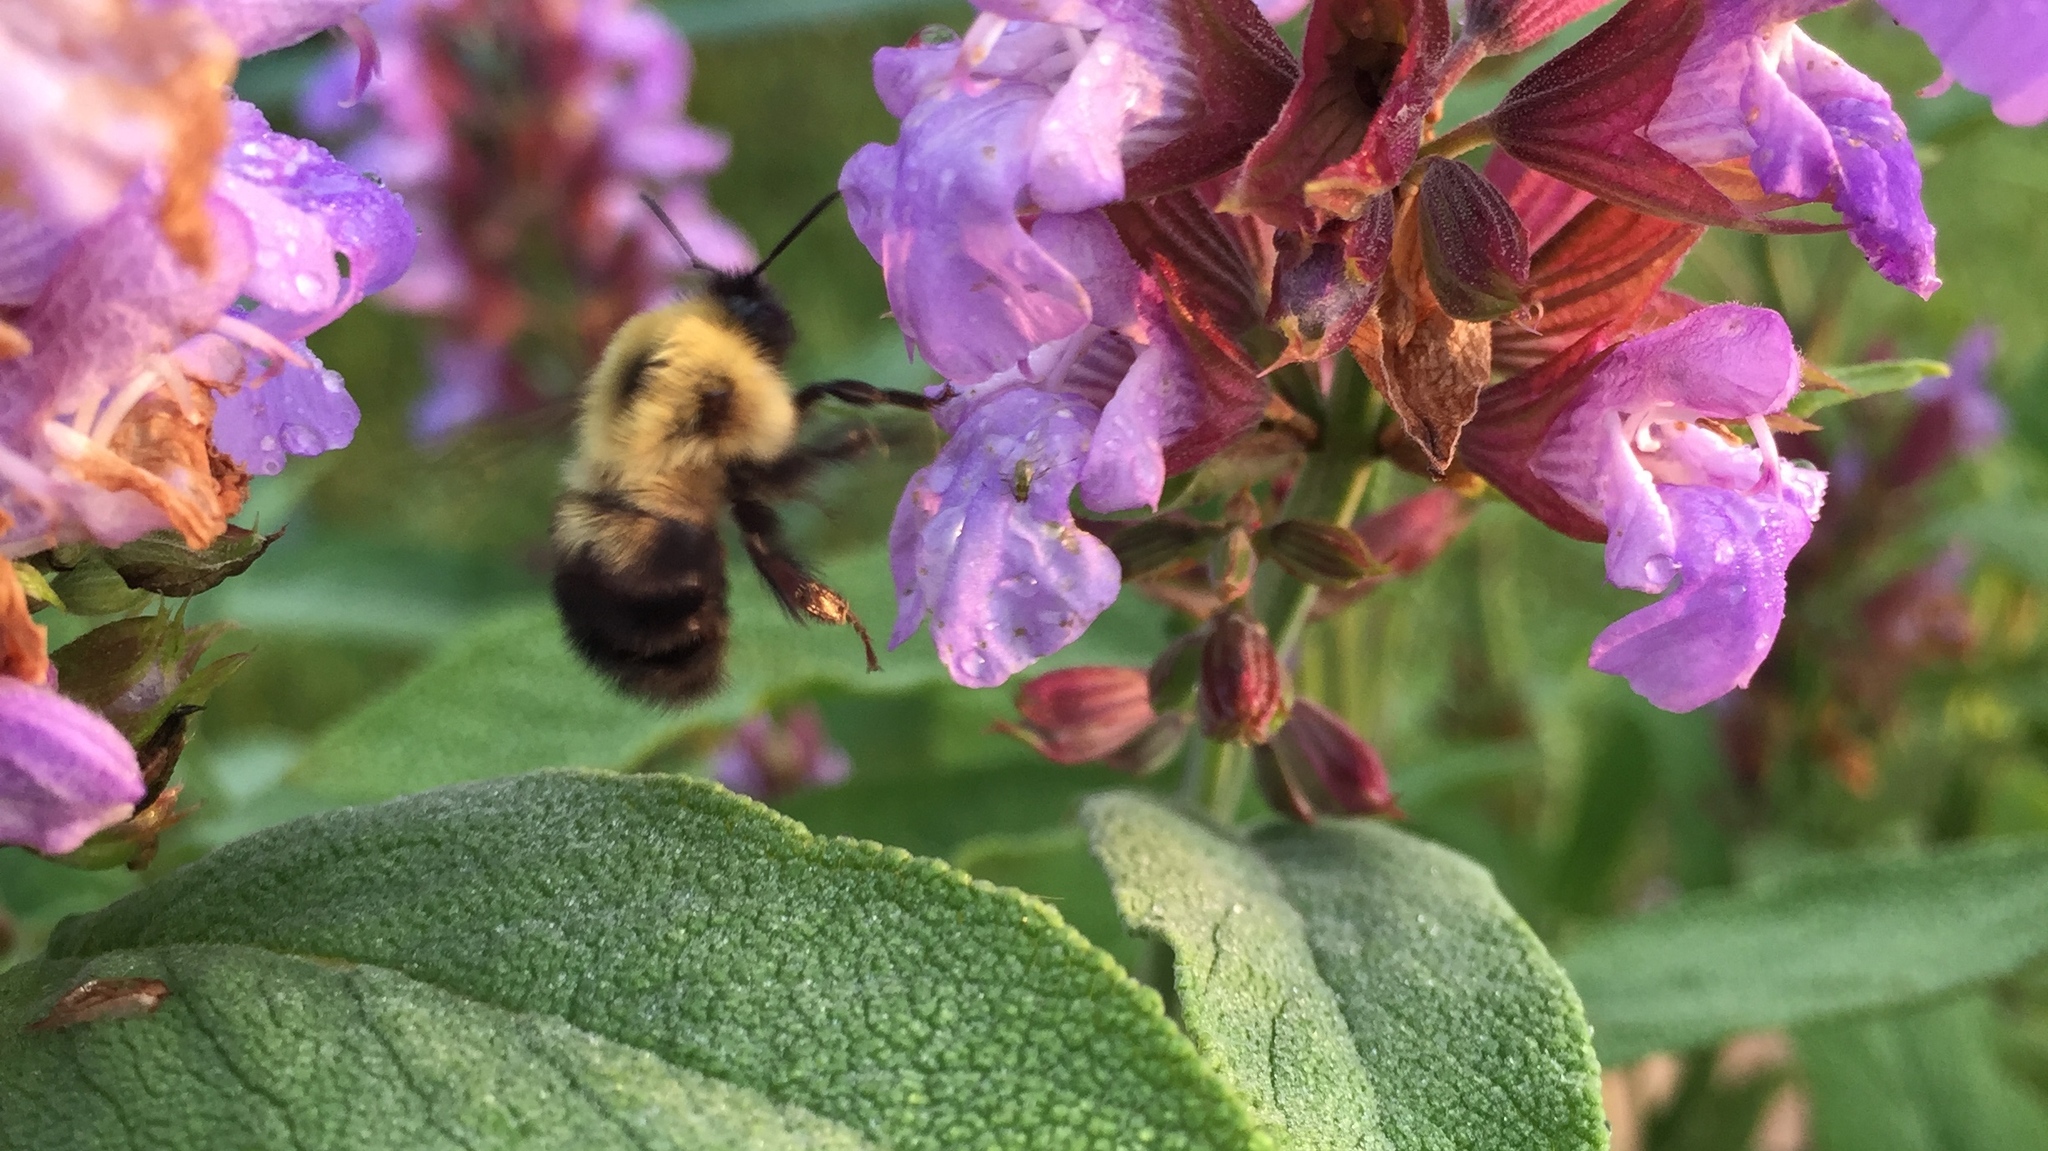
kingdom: Animalia
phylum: Arthropoda
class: Insecta
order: Hymenoptera
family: Apidae
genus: Bombus
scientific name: Bombus bimaculatus
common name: Two-spotted bumble bee
